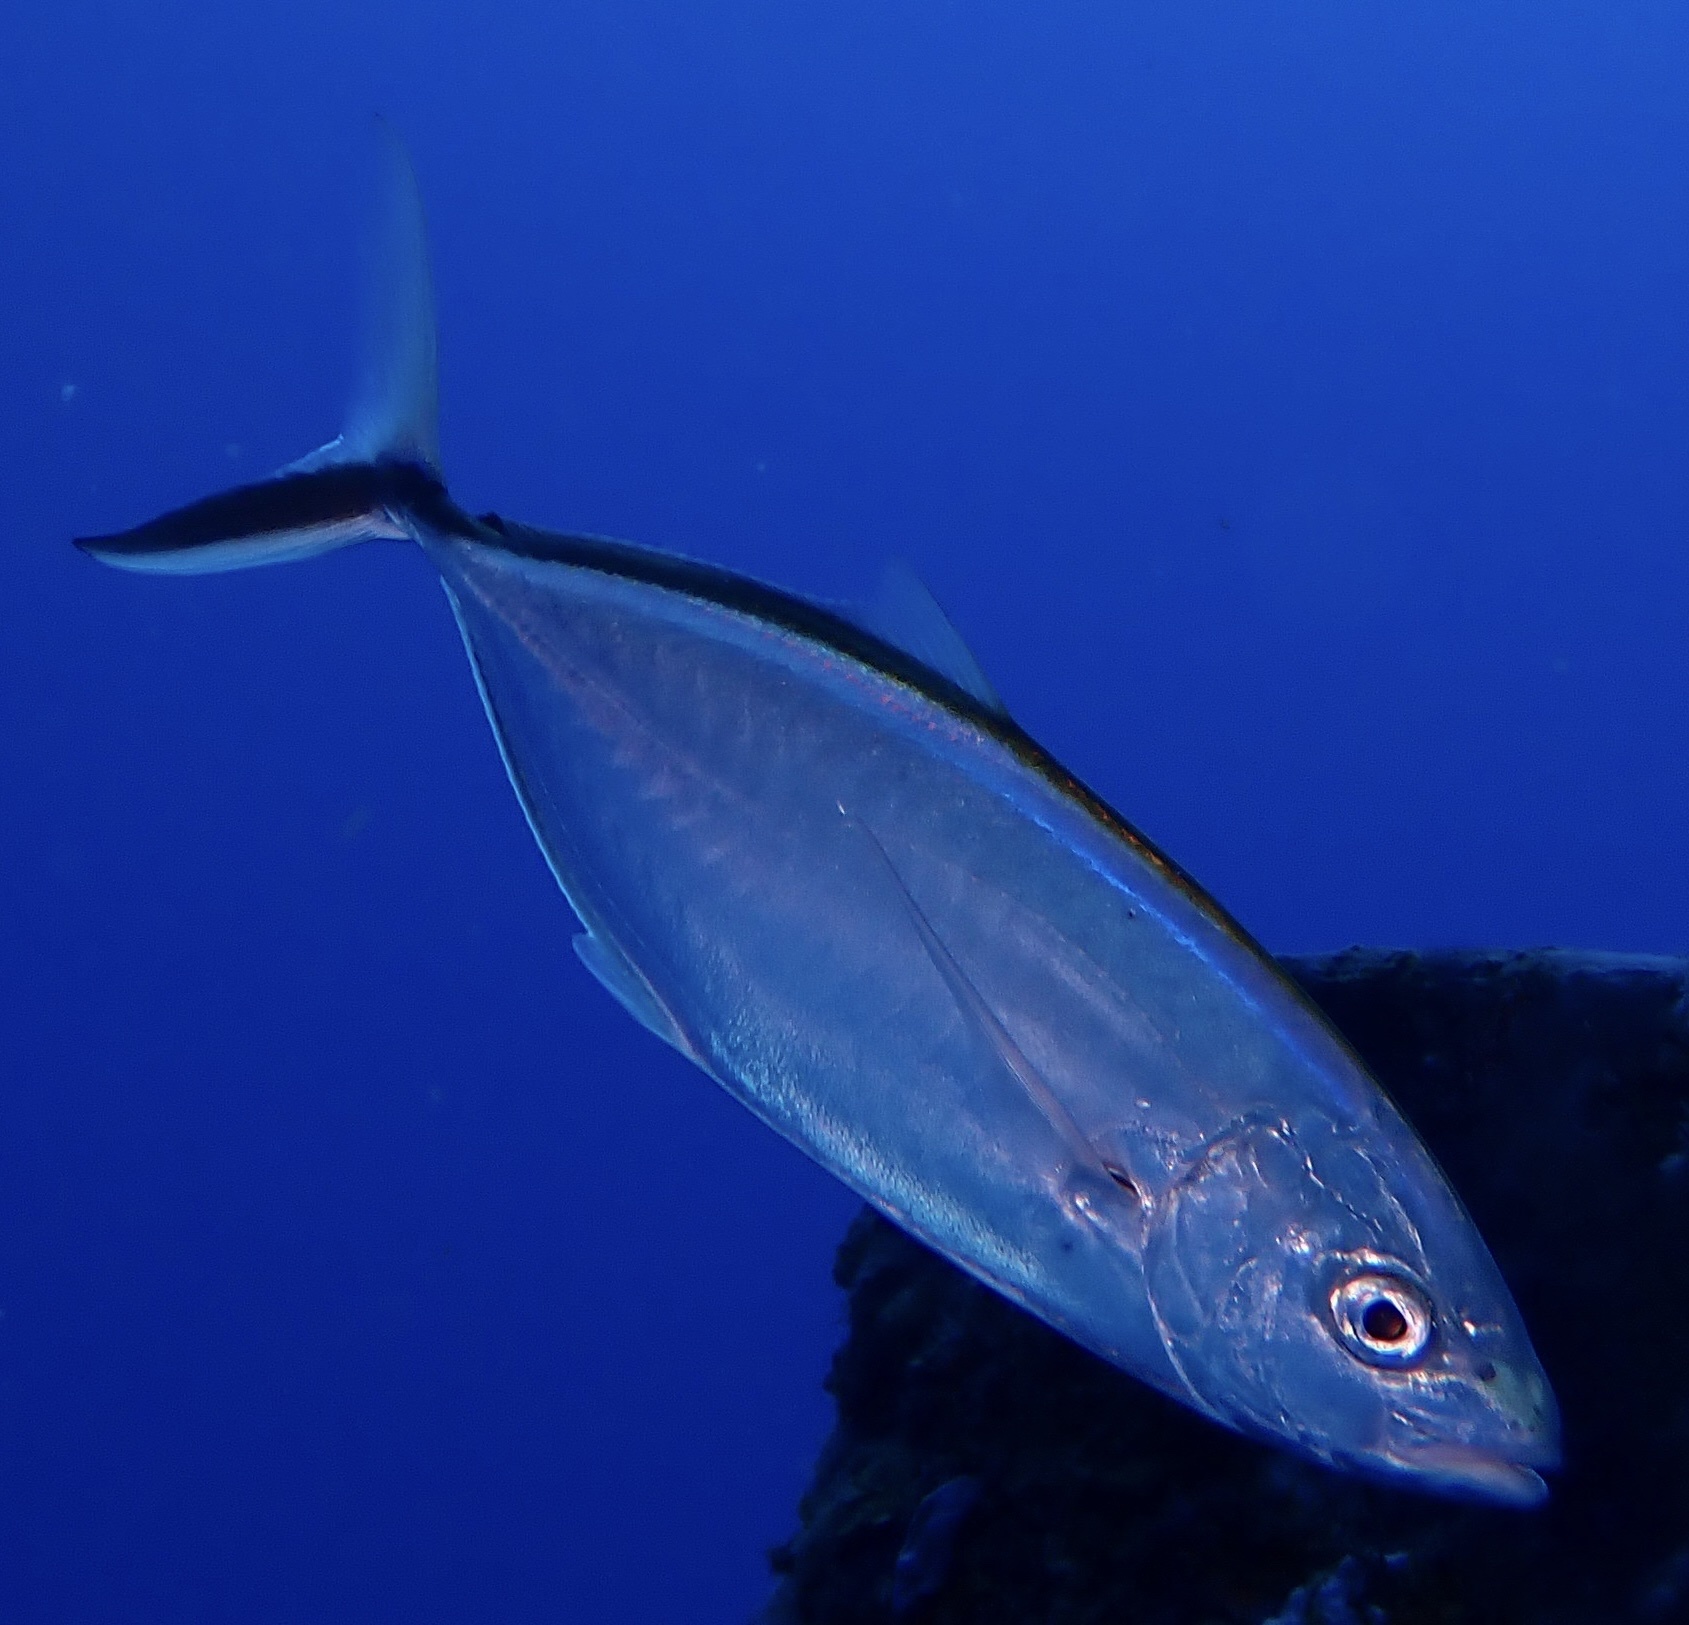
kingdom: Animalia
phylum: Chordata
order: Perciformes
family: Carangidae
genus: Caranx
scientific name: Caranx ruber
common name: Bar jack
